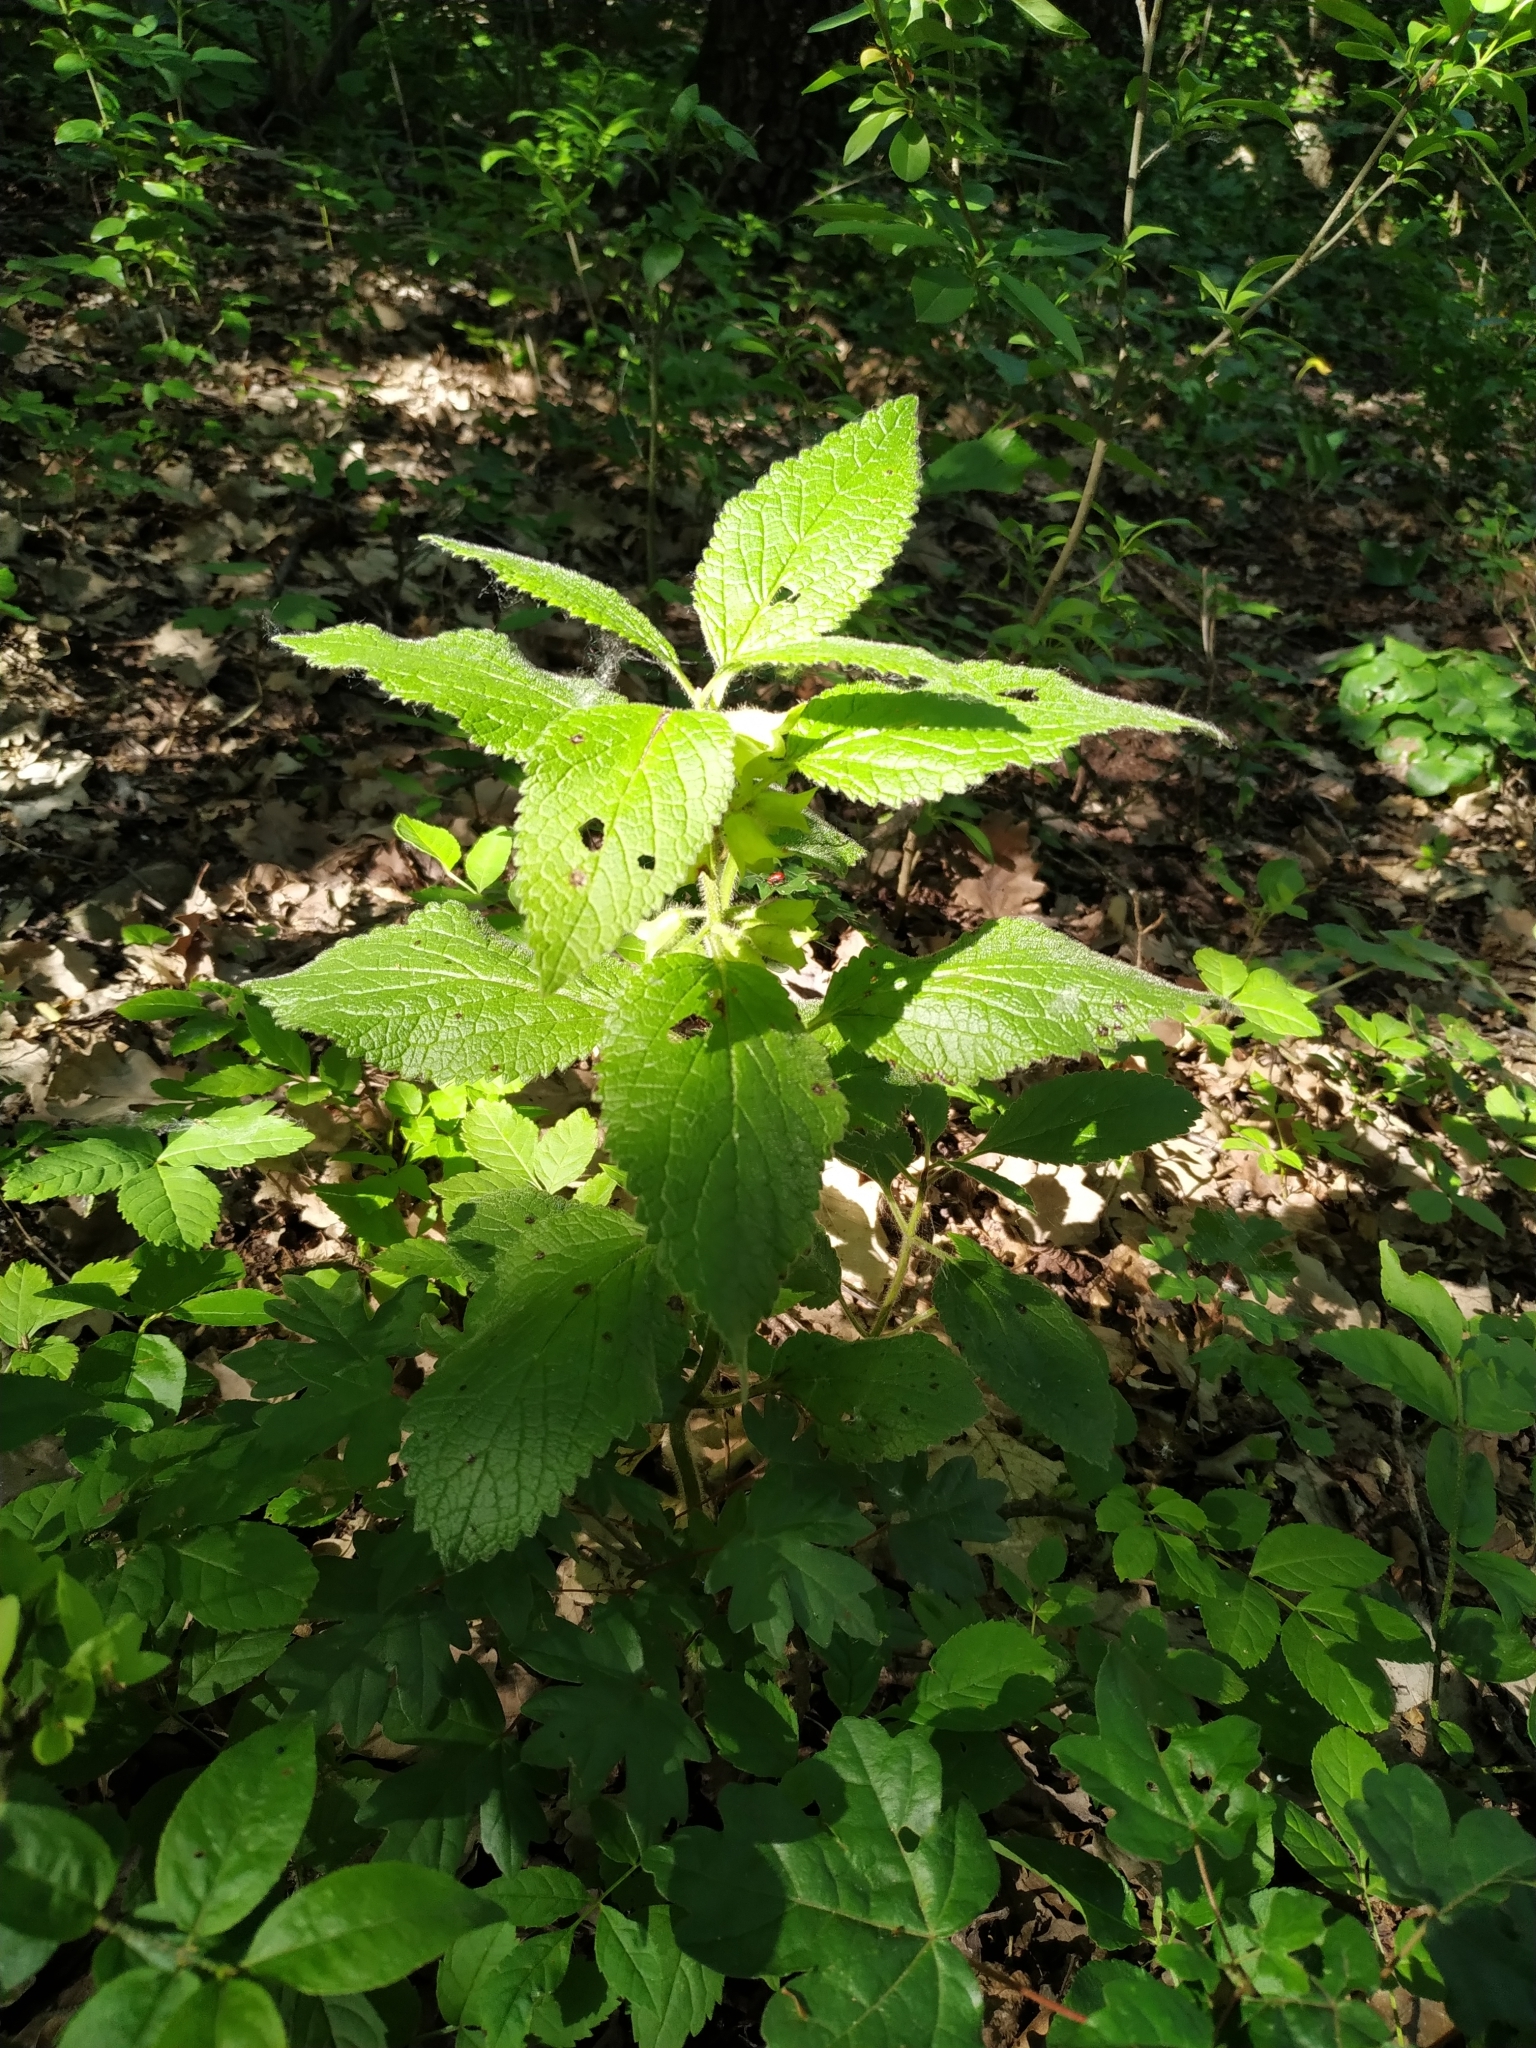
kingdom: Plantae
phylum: Tracheophyta
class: Magnoliopsida
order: Lamiales
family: Lamiaceae
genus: Melittis
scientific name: Melittis melissophyllum
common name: Bastard balm
